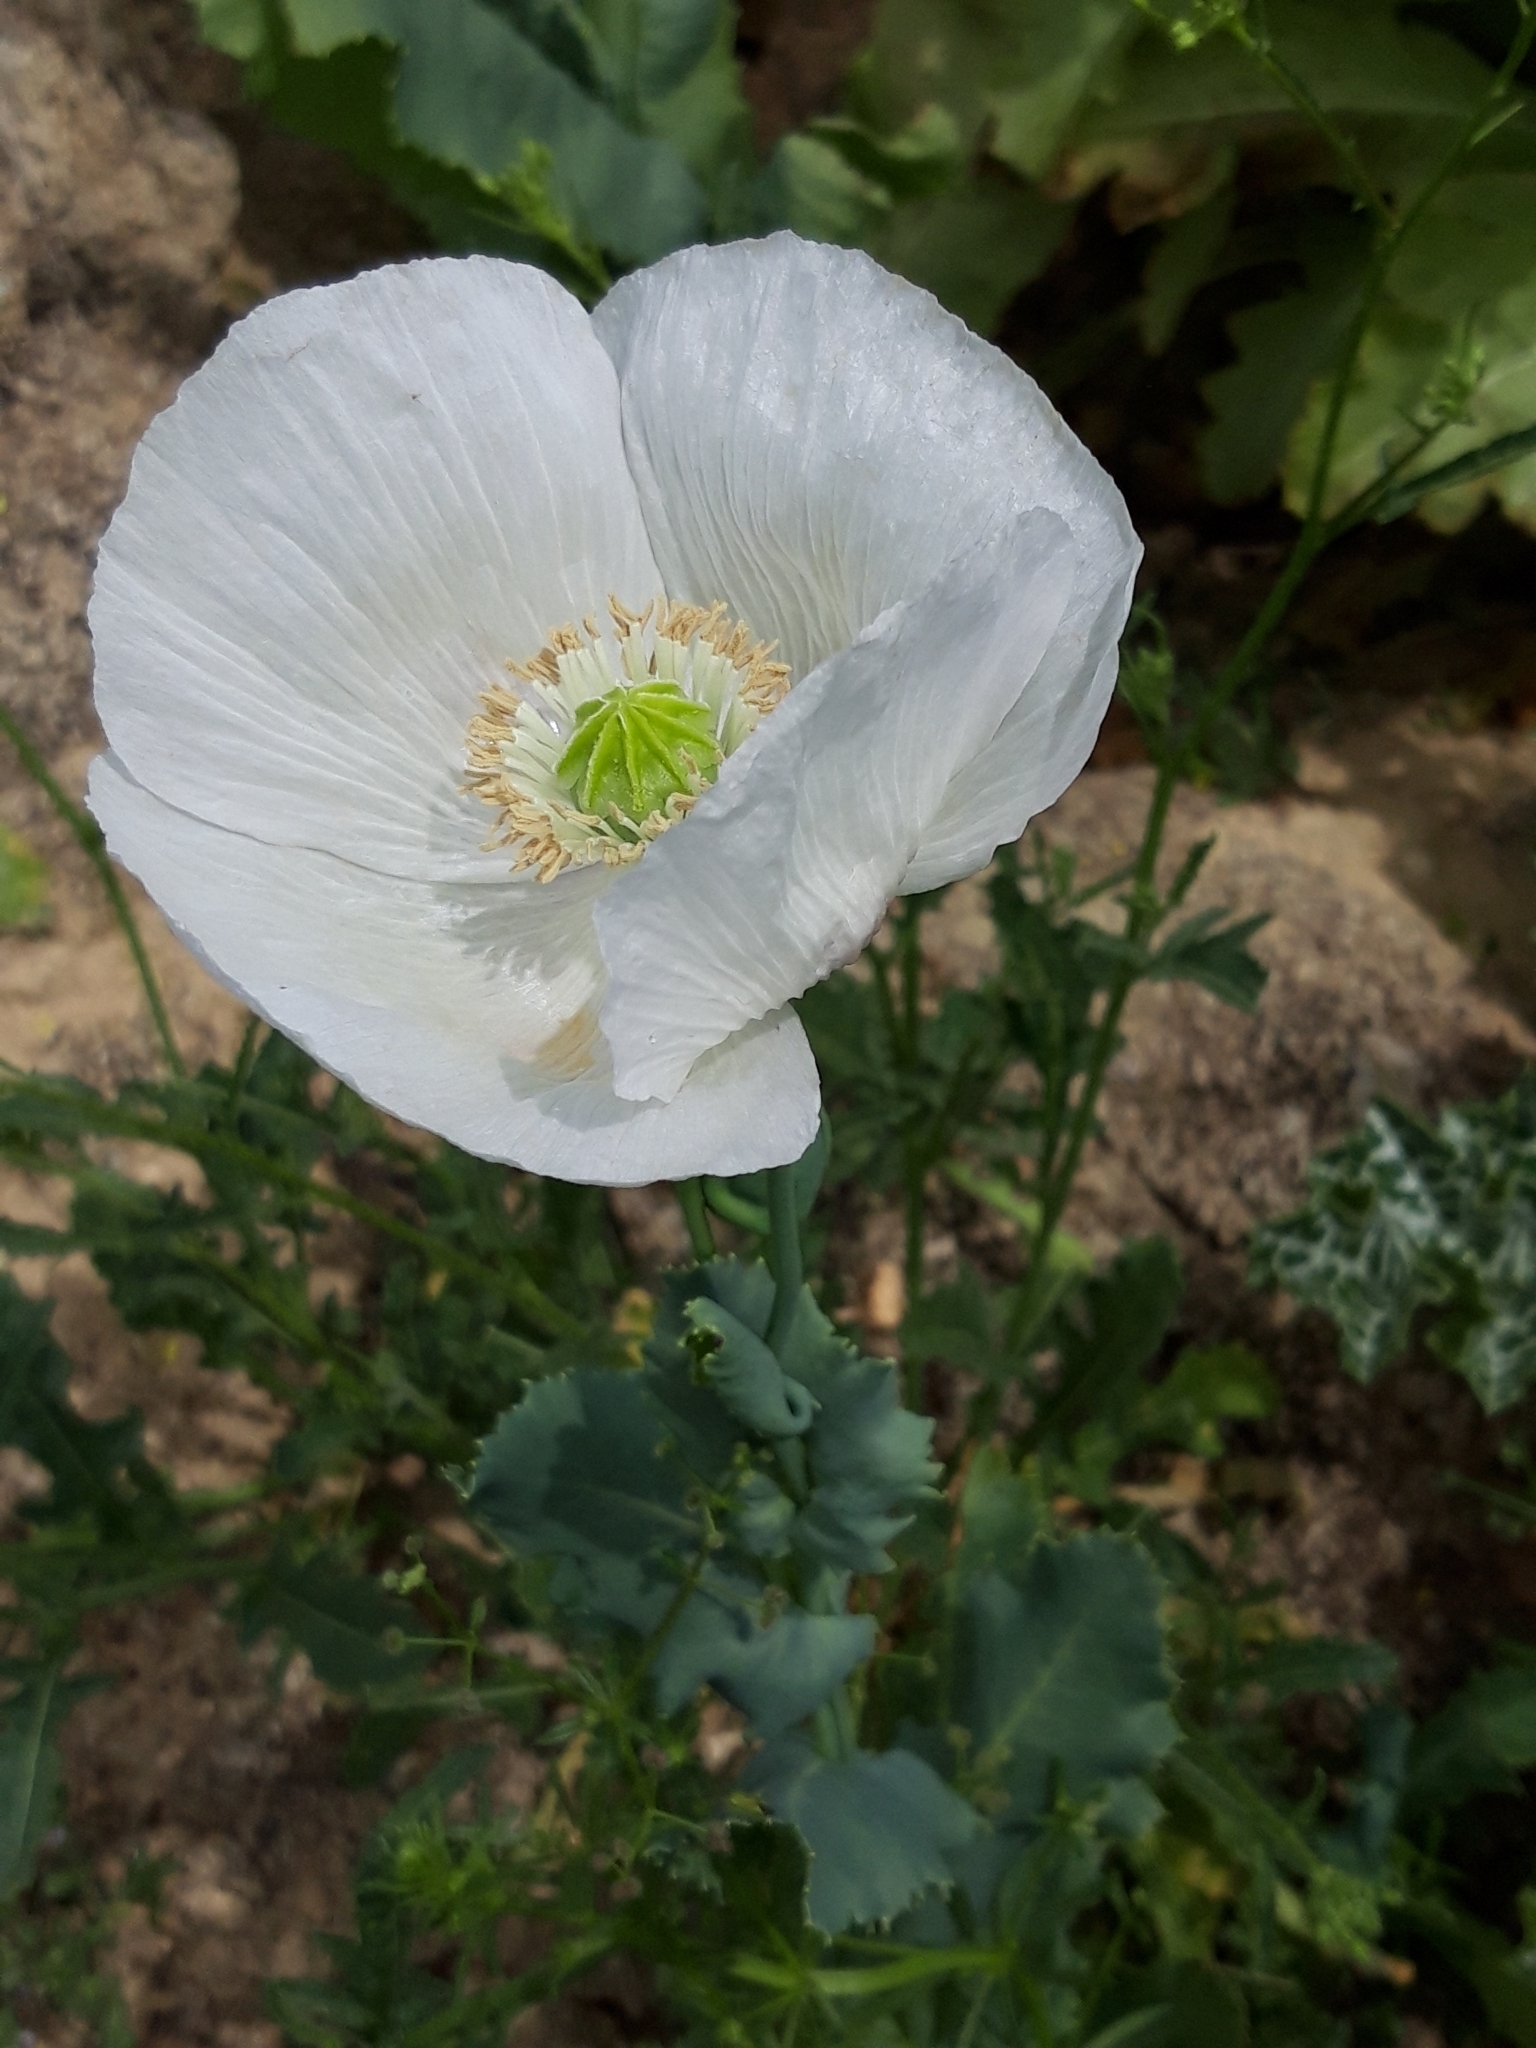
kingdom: Plantae
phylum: Tracheophyta
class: Magnoliopsida
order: Ranunculales
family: Papaveraceae
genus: Papaver
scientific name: Papaver somniferum
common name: Opium poppy
